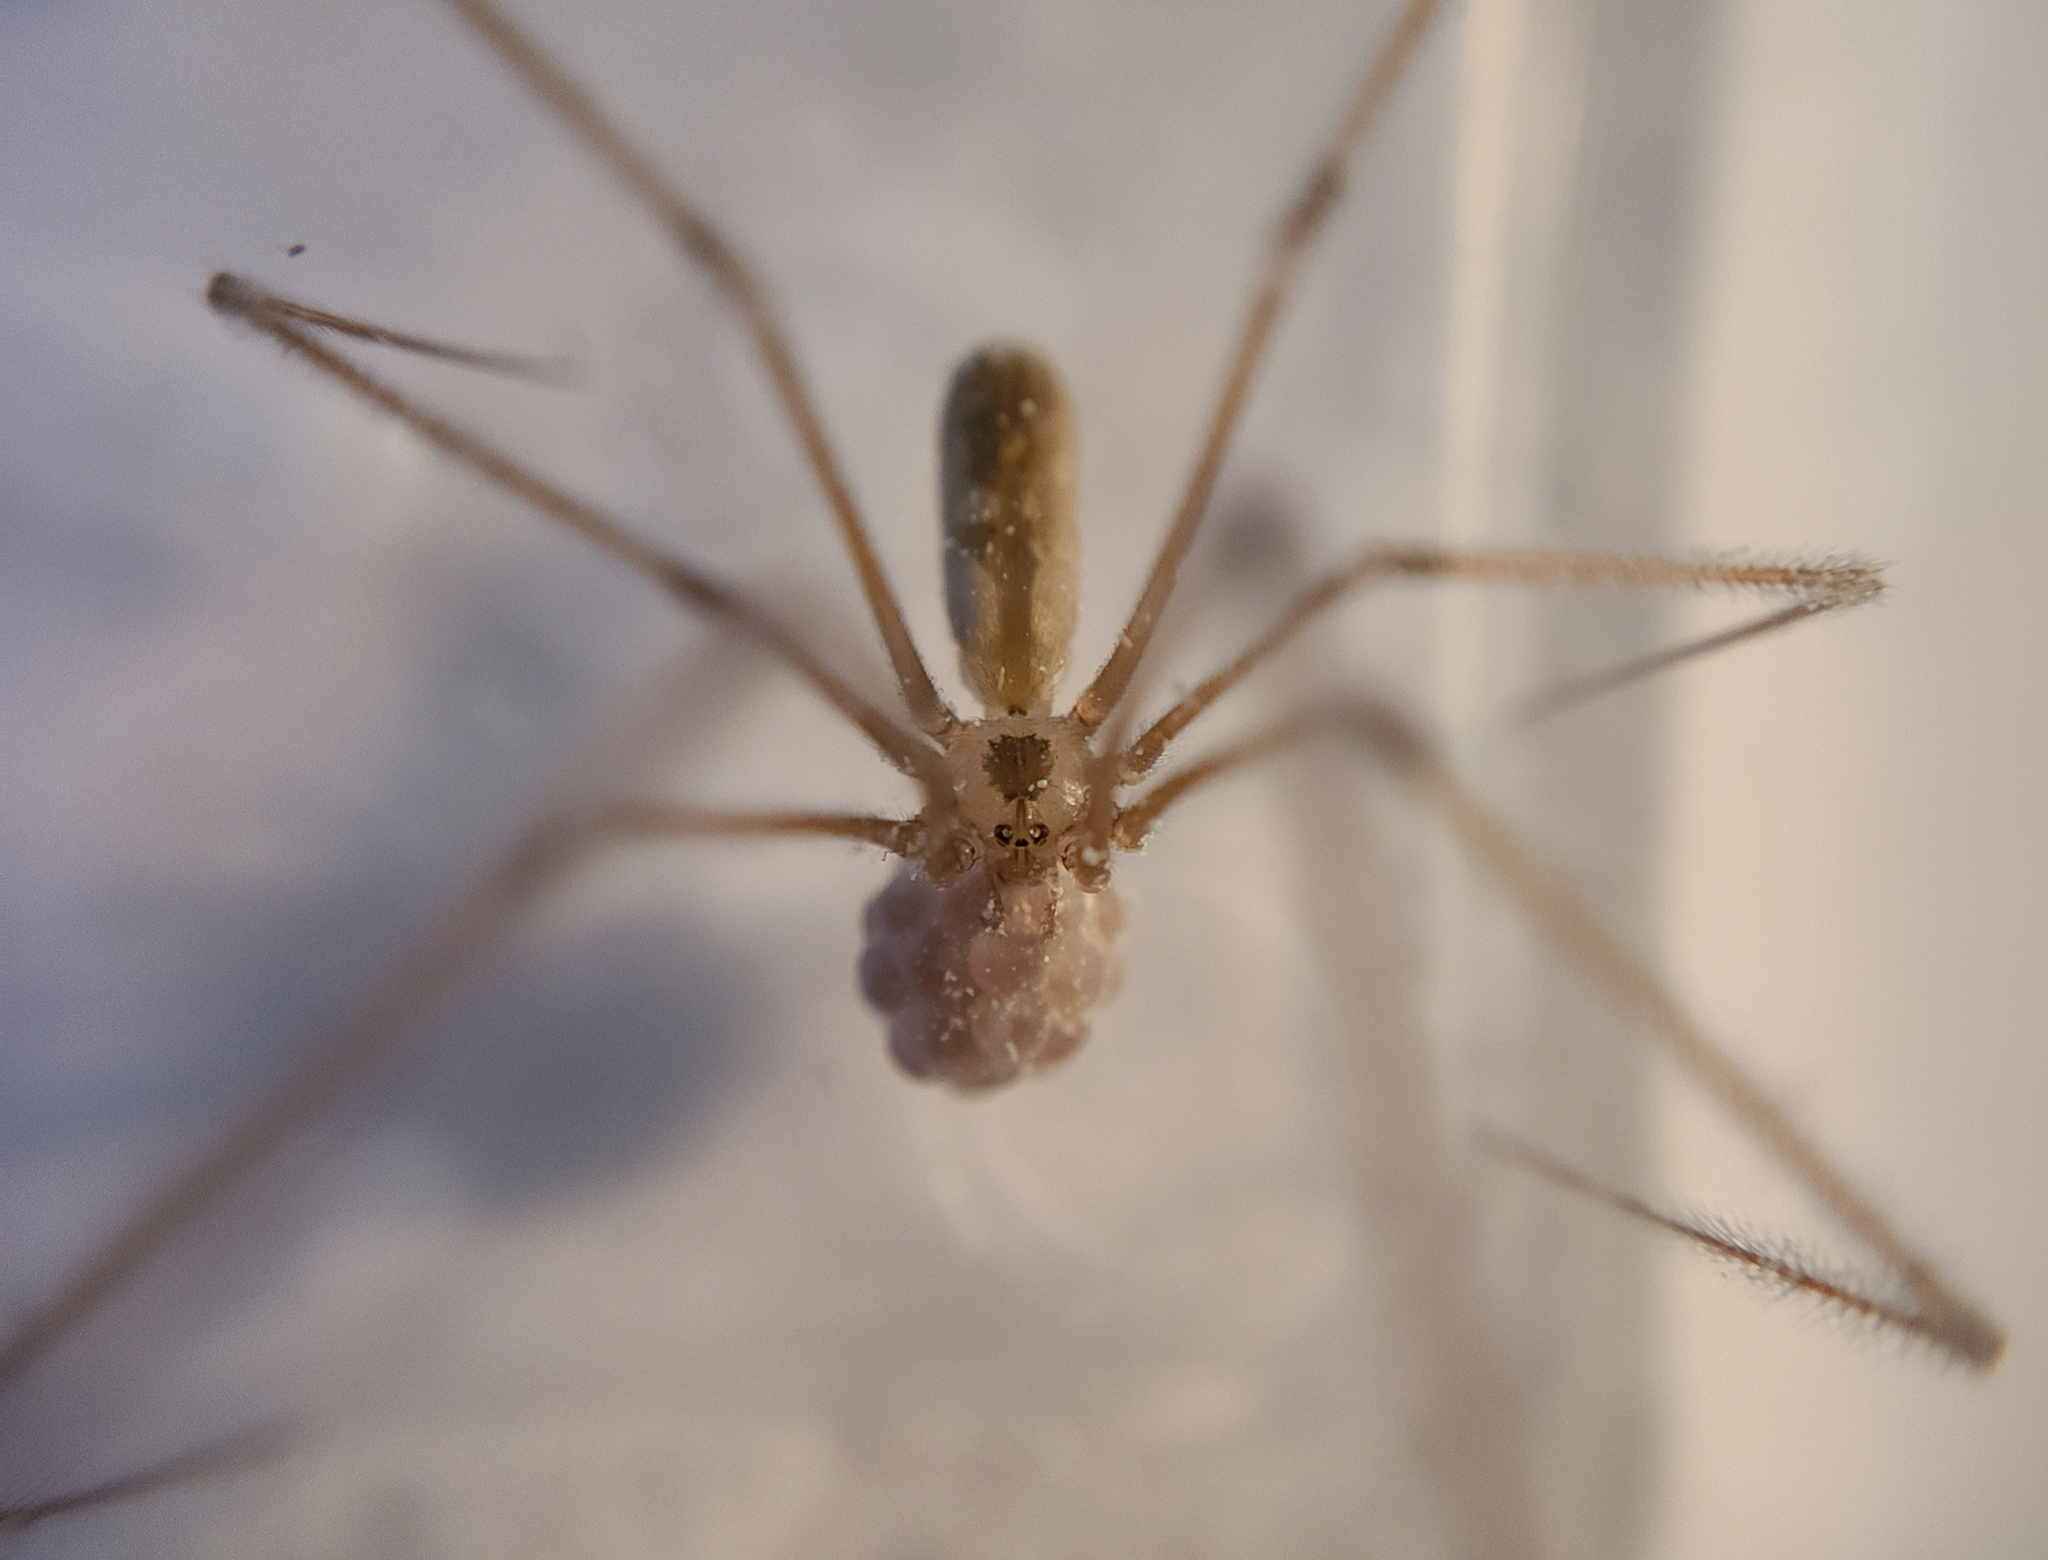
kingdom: Animalia
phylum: Arthropoda
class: Arachnida
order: Araneae
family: Pholcidae
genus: Pholcus
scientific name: Pholcus phalangioides
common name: Longbodied cellar spider
